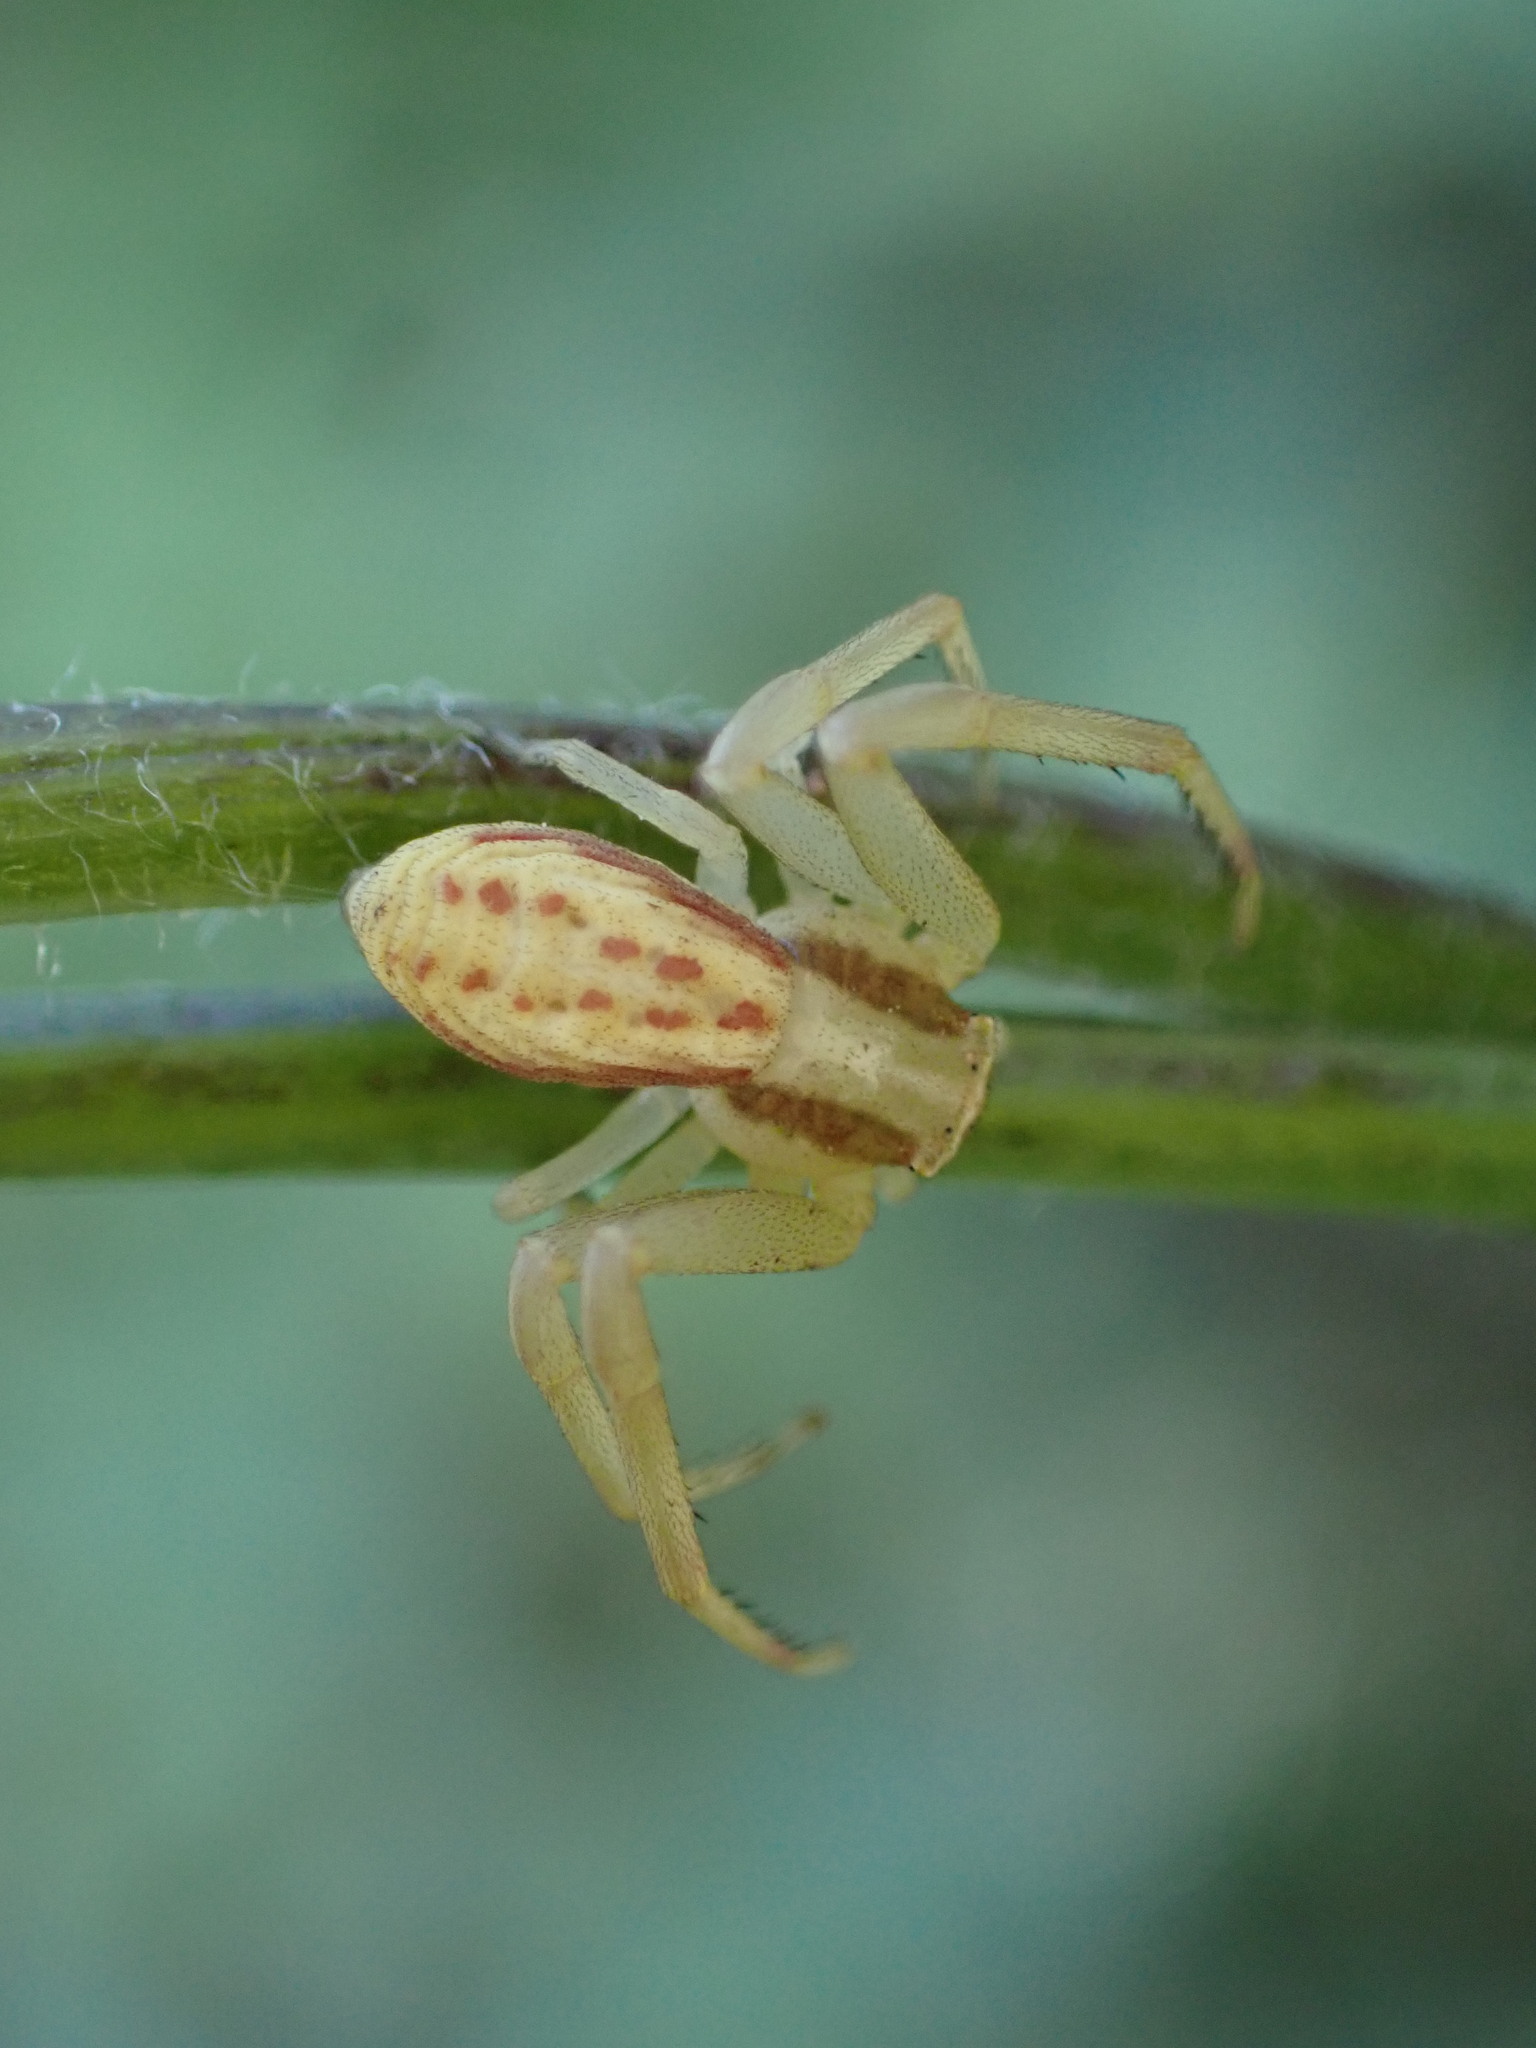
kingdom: Animalia
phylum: Arthropoda
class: Arachnida
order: Araneae
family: Thomisidae
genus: Runcinia
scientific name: Runcinia grammica
